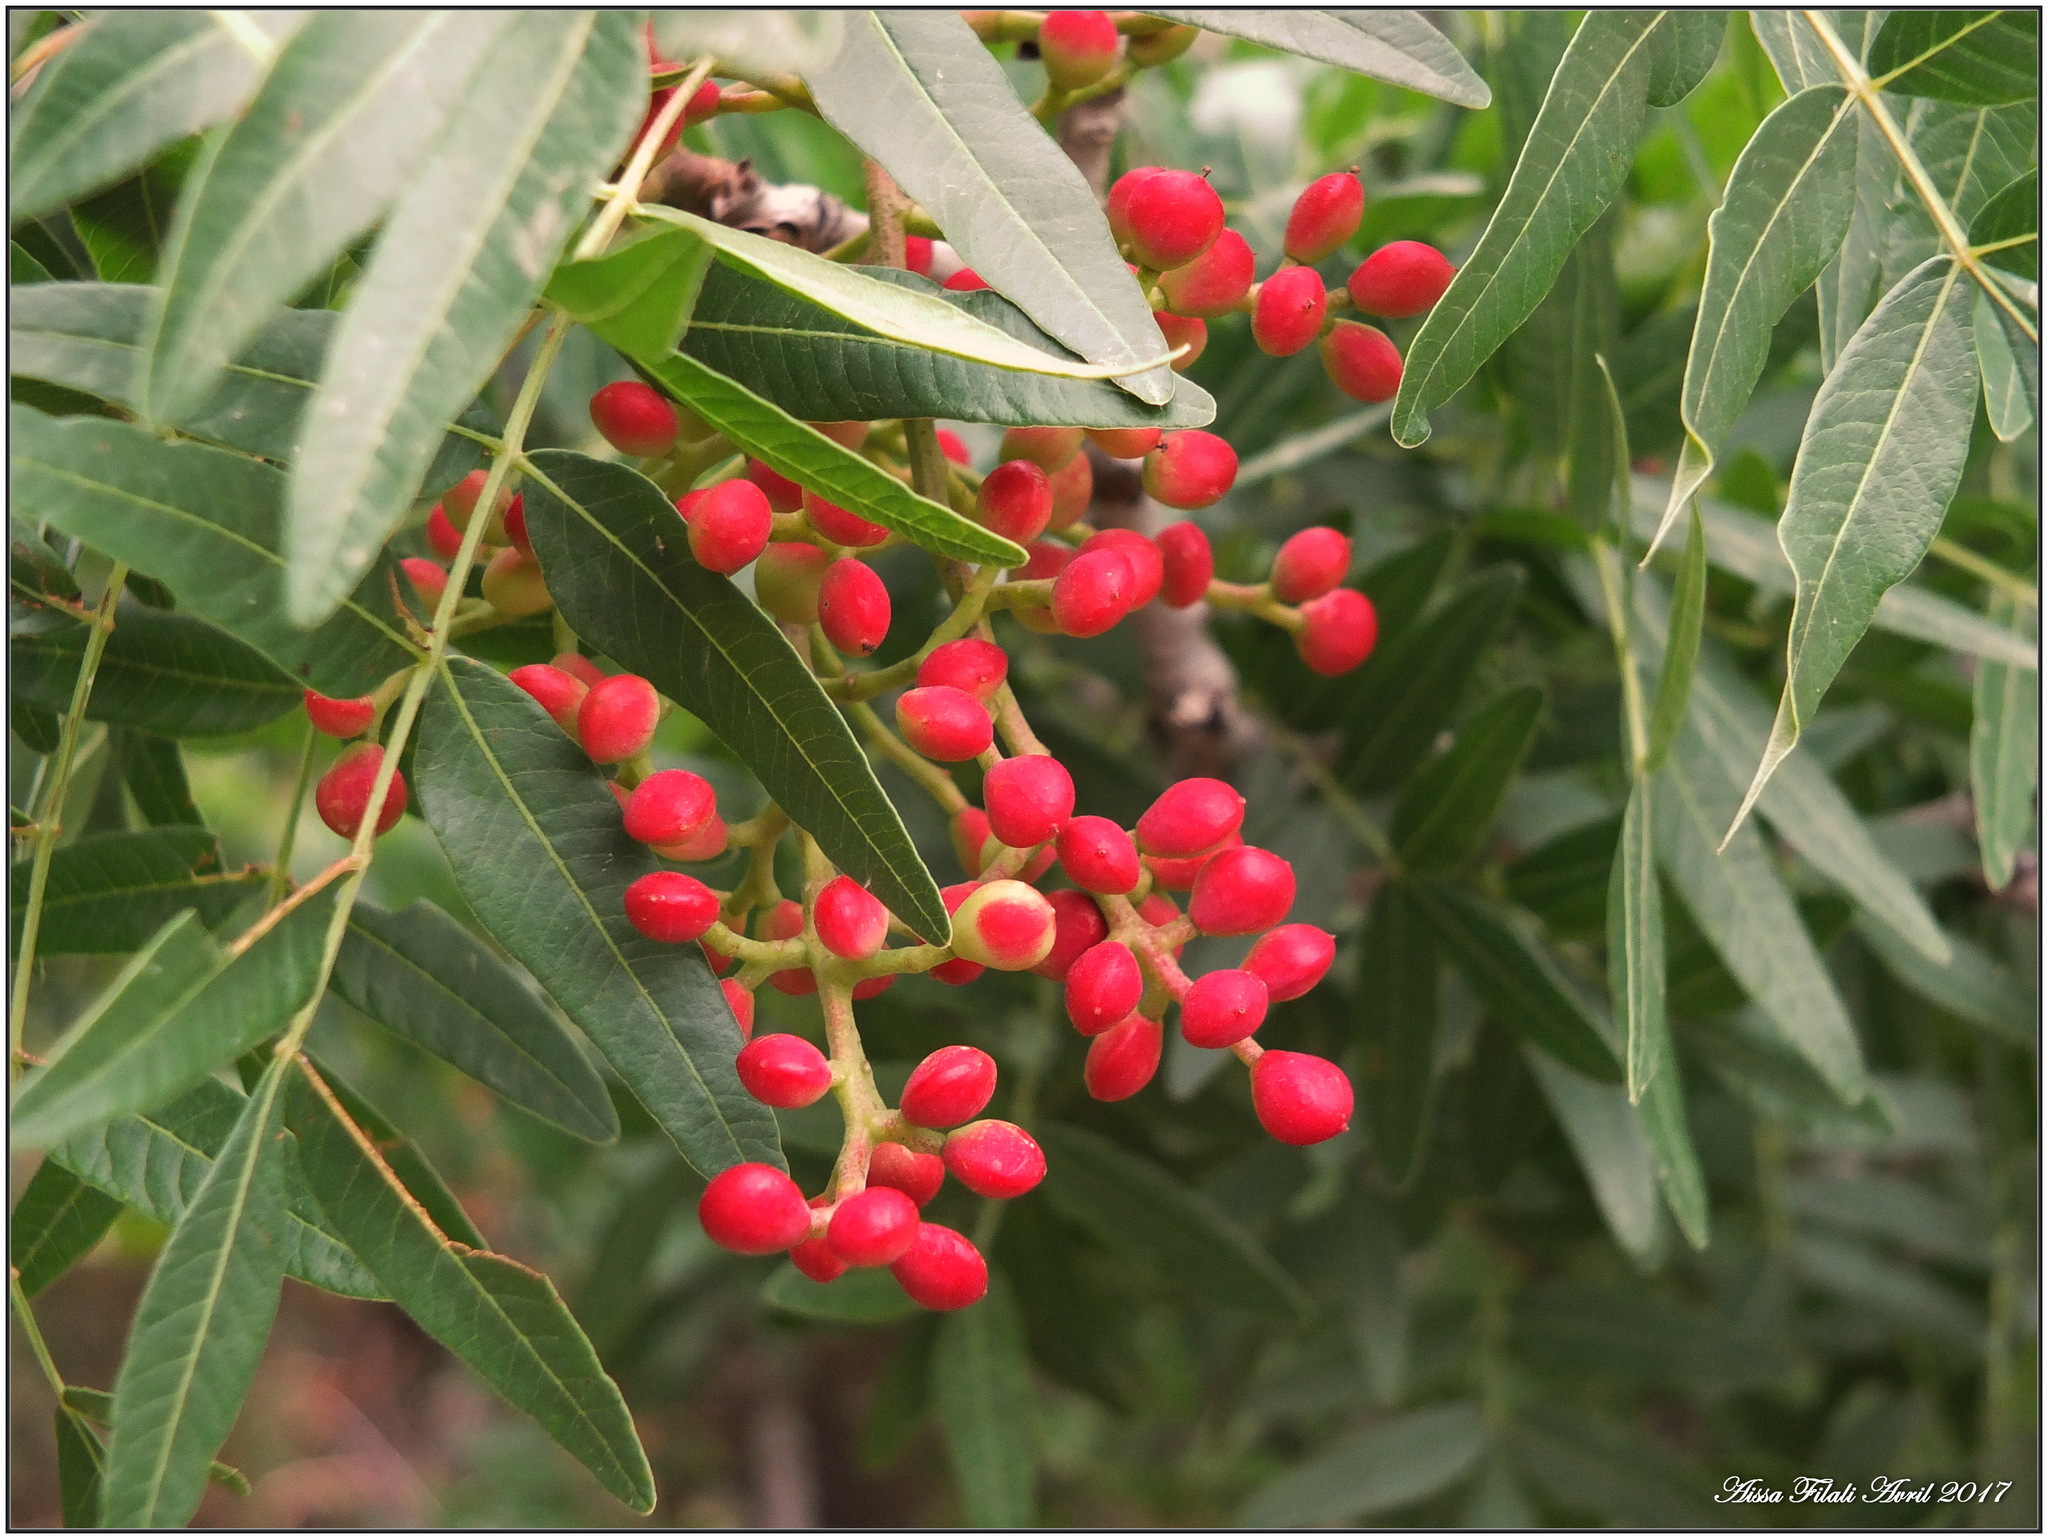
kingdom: Plantae
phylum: Tracheophyta
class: Magnoliopsida
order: Sapindales
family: Anacardiaceae
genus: Pistacia
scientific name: Pistacia lentiscus
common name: Lentisk
